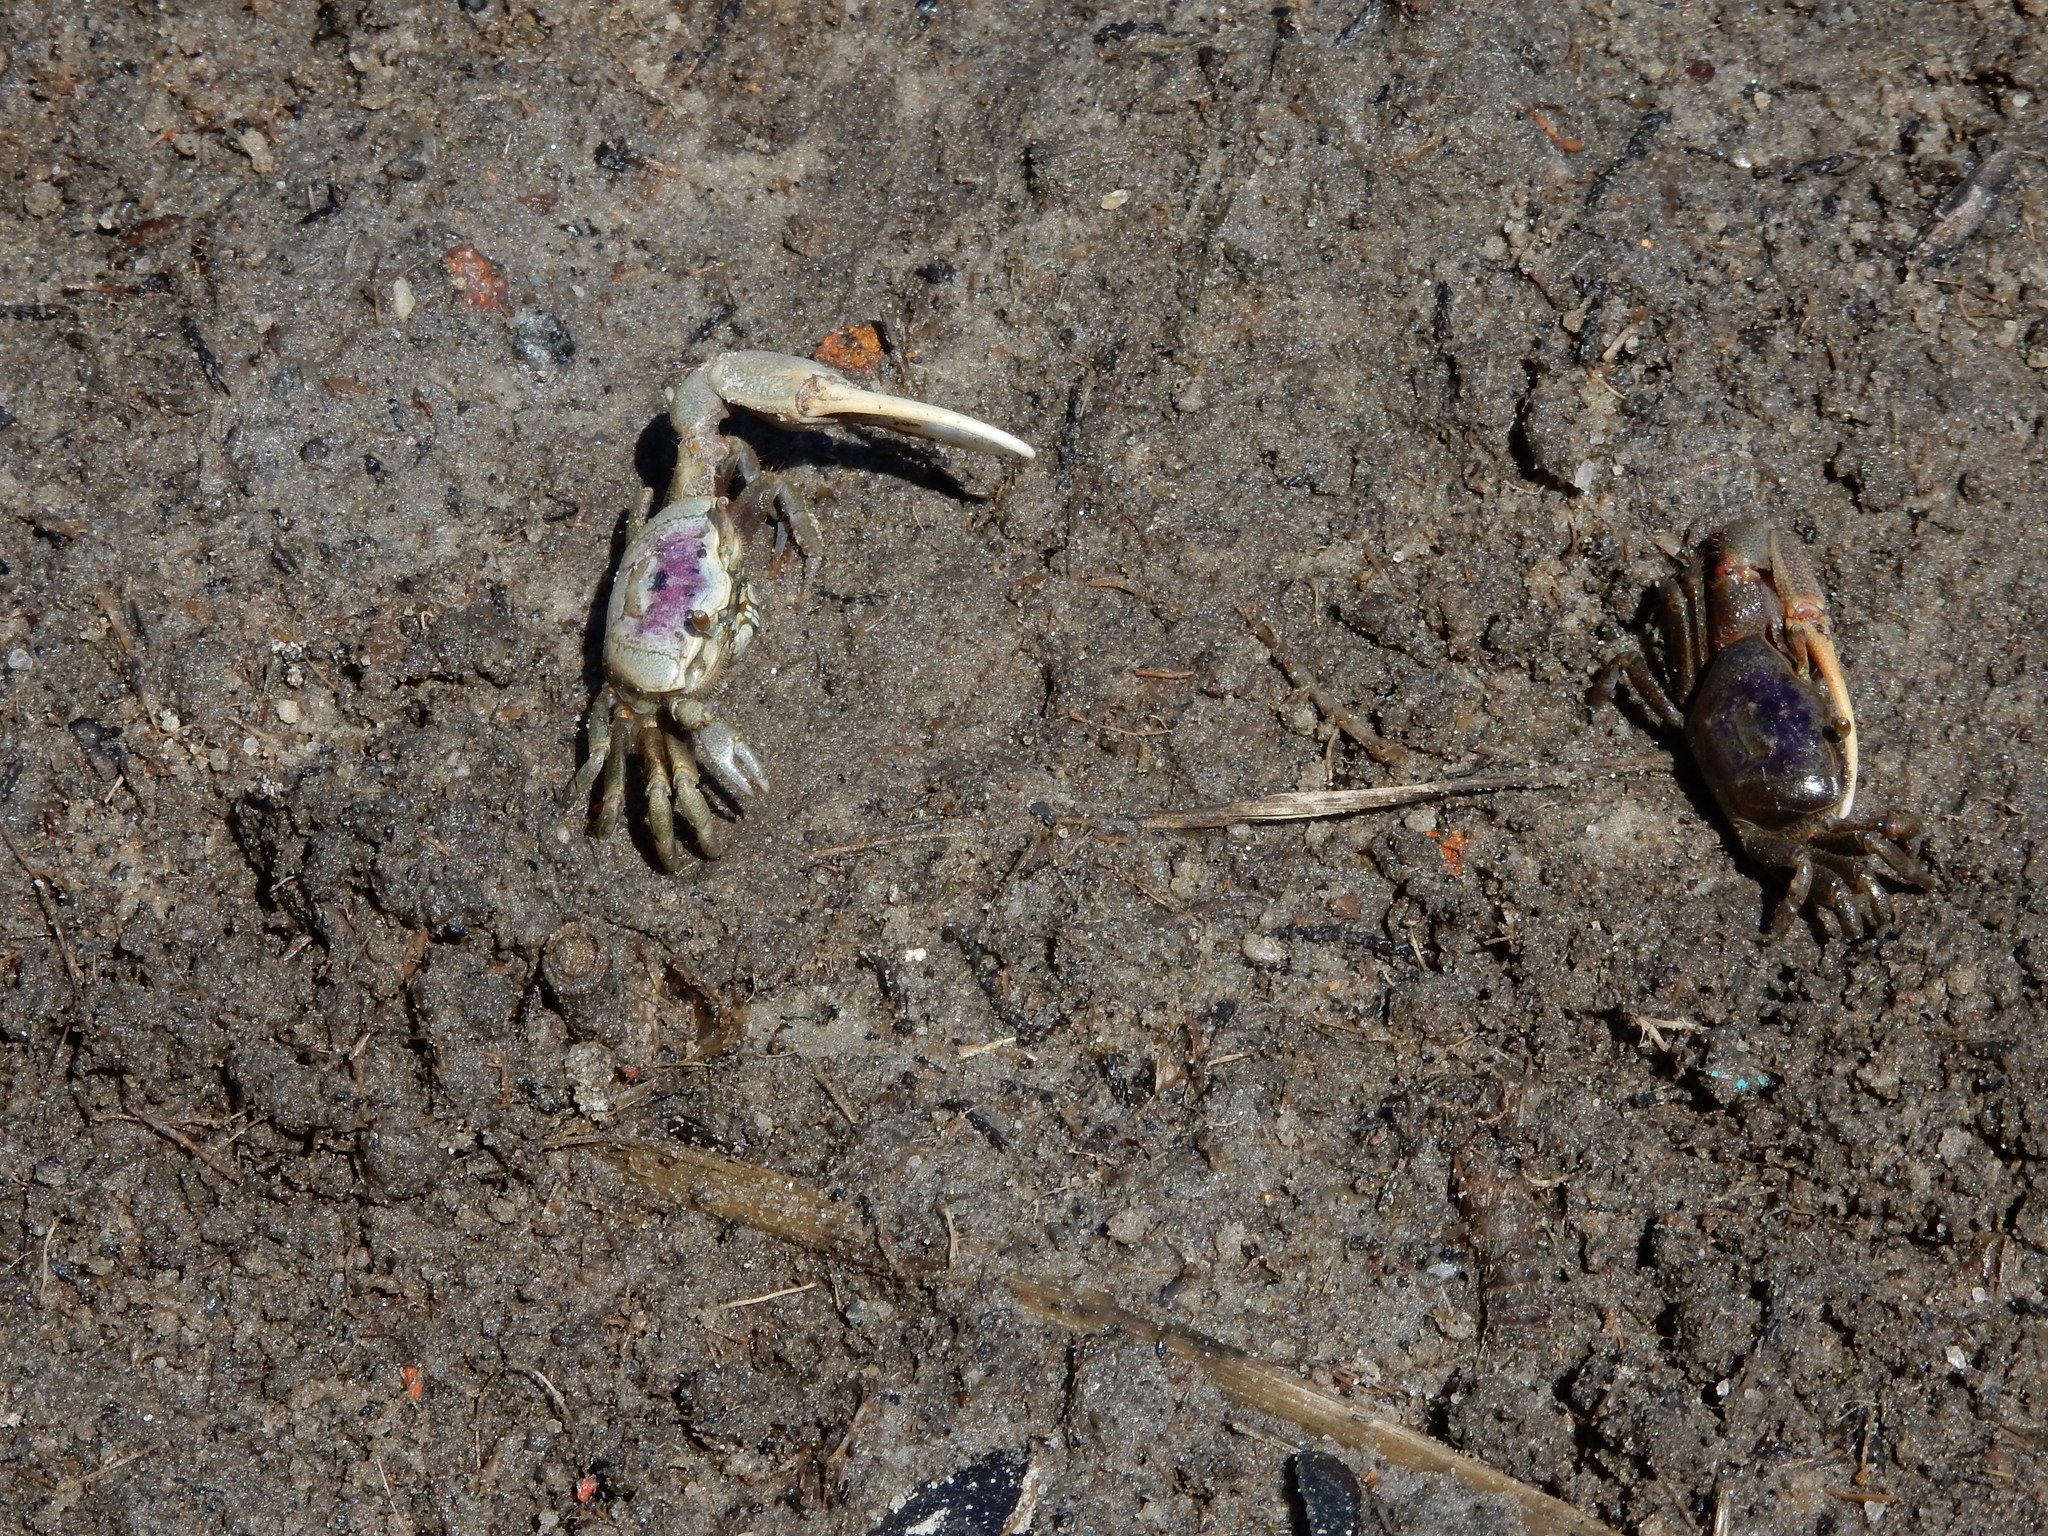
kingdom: Animalia
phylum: Arthropoda
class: Malacostraca
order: Decapoda
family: Ocypodidae
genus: Leptuca
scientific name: Leptuca pugilator
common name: Atlantic sand fiddler crab
